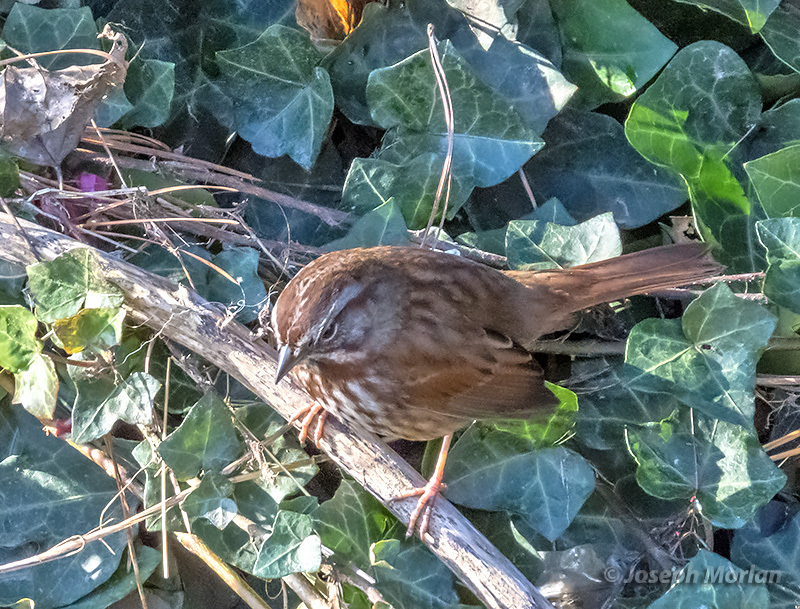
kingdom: Animalia
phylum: Chordata
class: Aves
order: Passeriformes
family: Passerellidae
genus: Melospiza
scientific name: Melospiza melodia
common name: Song sparrow
